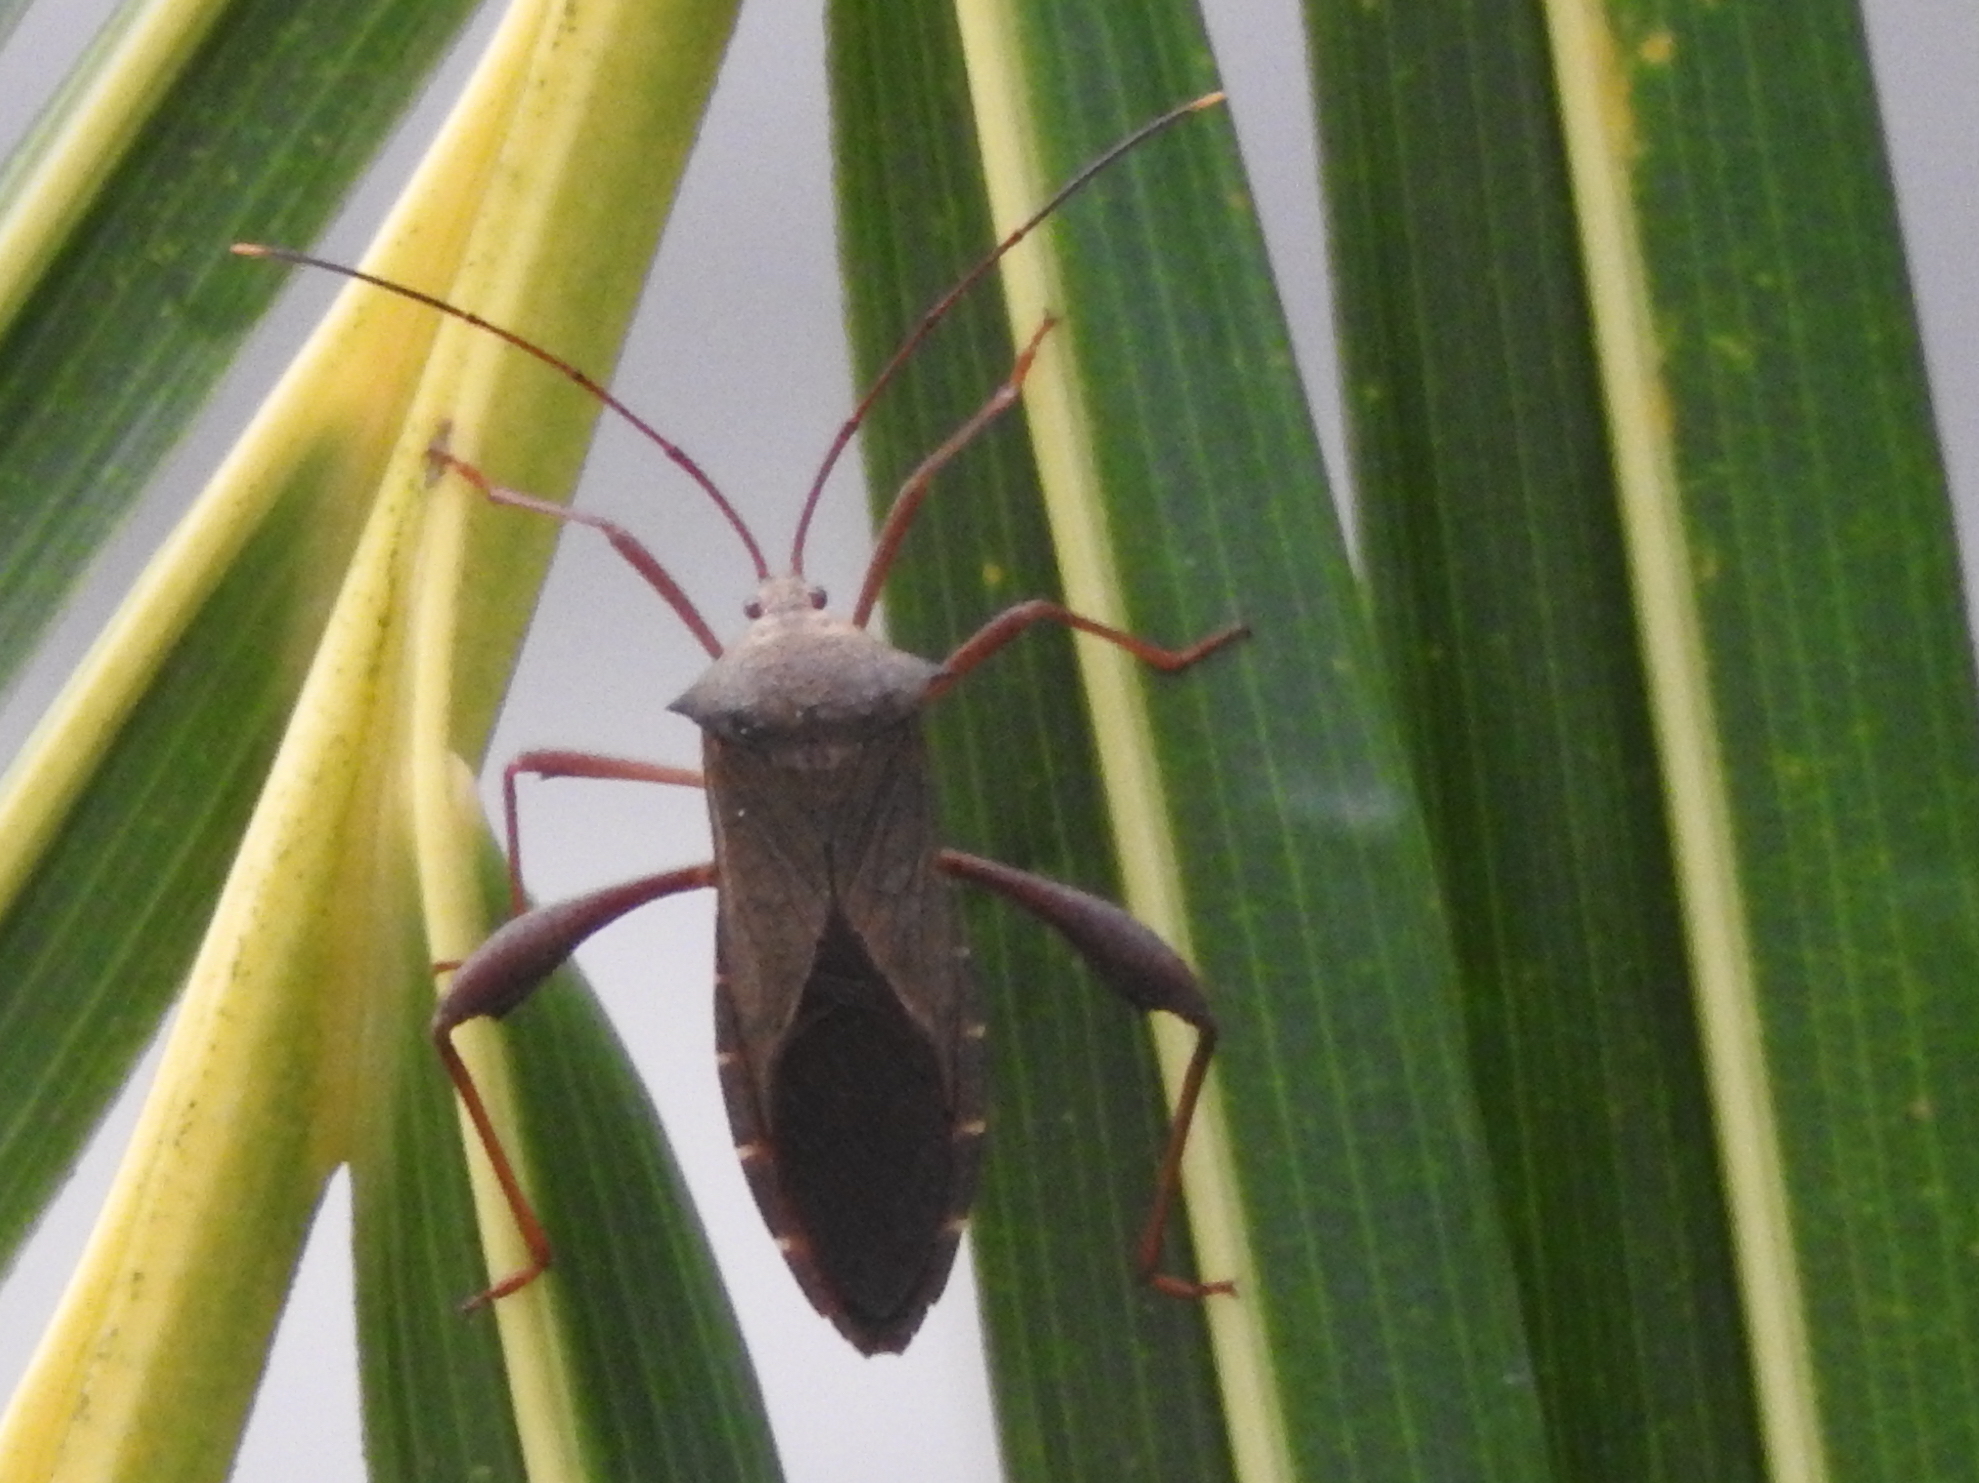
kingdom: Animalia
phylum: Arthropoda
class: Insecta
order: Hemiptera
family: Coreidae
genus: Mictis
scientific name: Mictis longicornis
